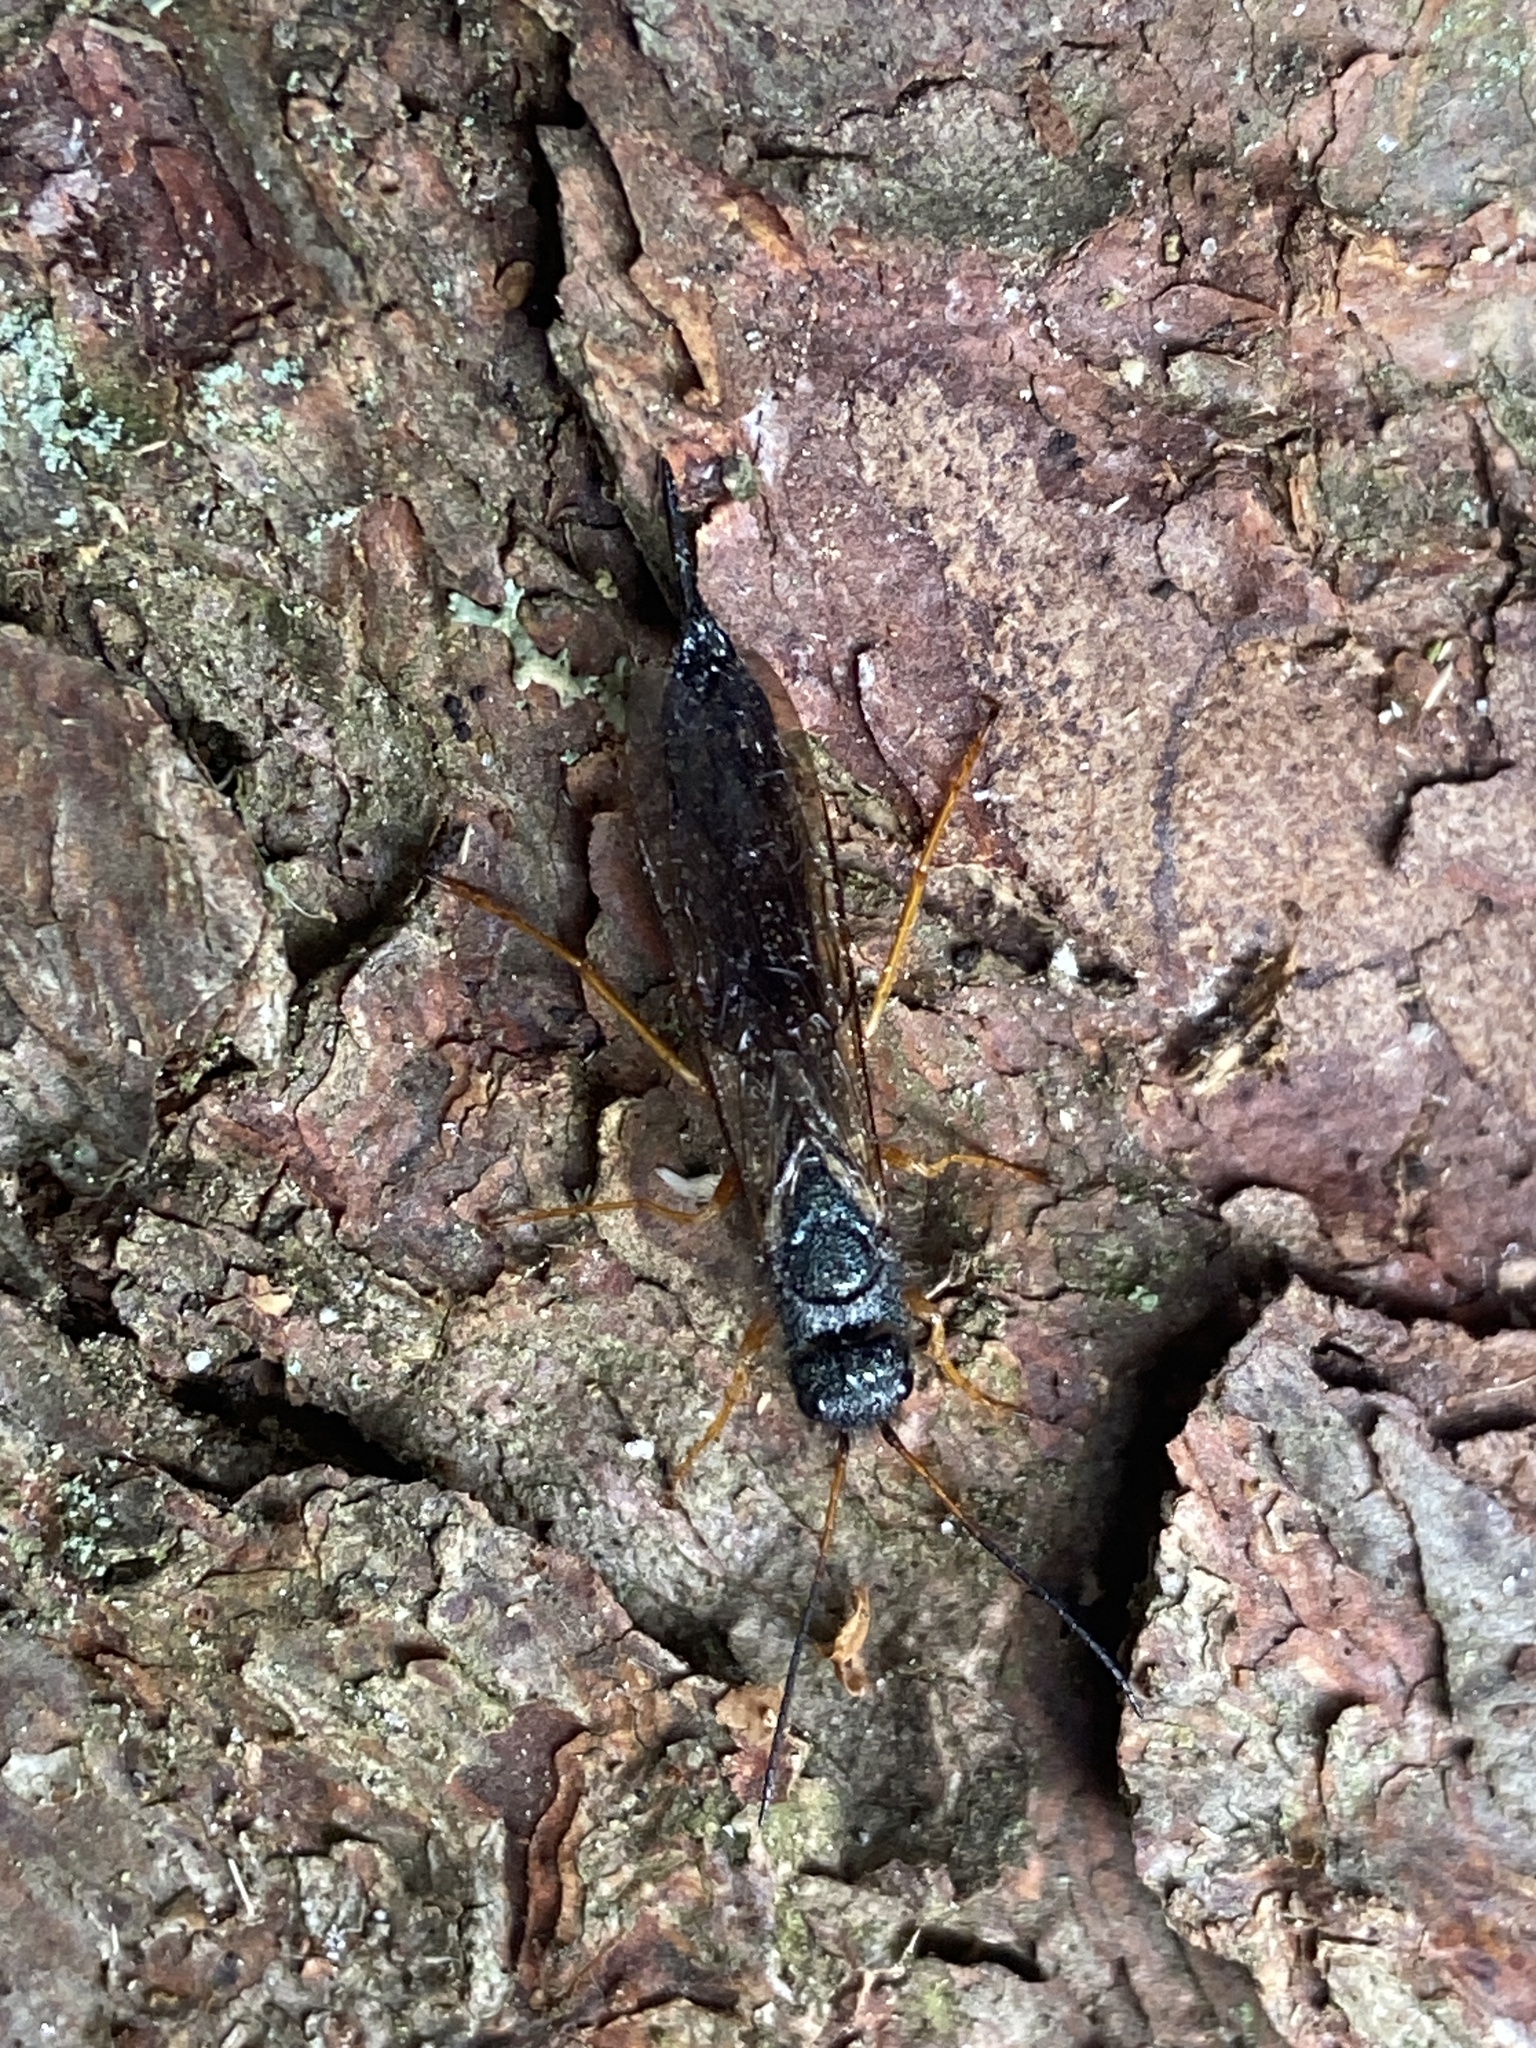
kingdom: Animalia
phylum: Arthropoda
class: Insecta
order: Hymenoptera
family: Siricidae
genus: Sirex
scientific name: Sirex juvencus
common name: Blue horntail
